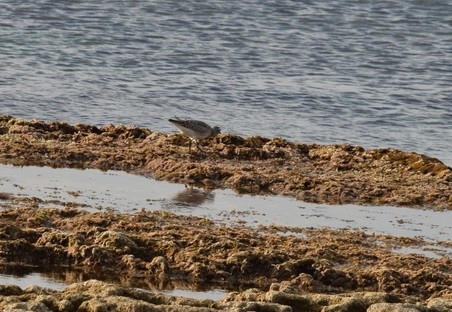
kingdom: Animalia
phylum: Chordata
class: Aves
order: Charadriiformes
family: Charadriidae
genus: Pluvialis
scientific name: Pluvialis squatarola
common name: Grey plover
